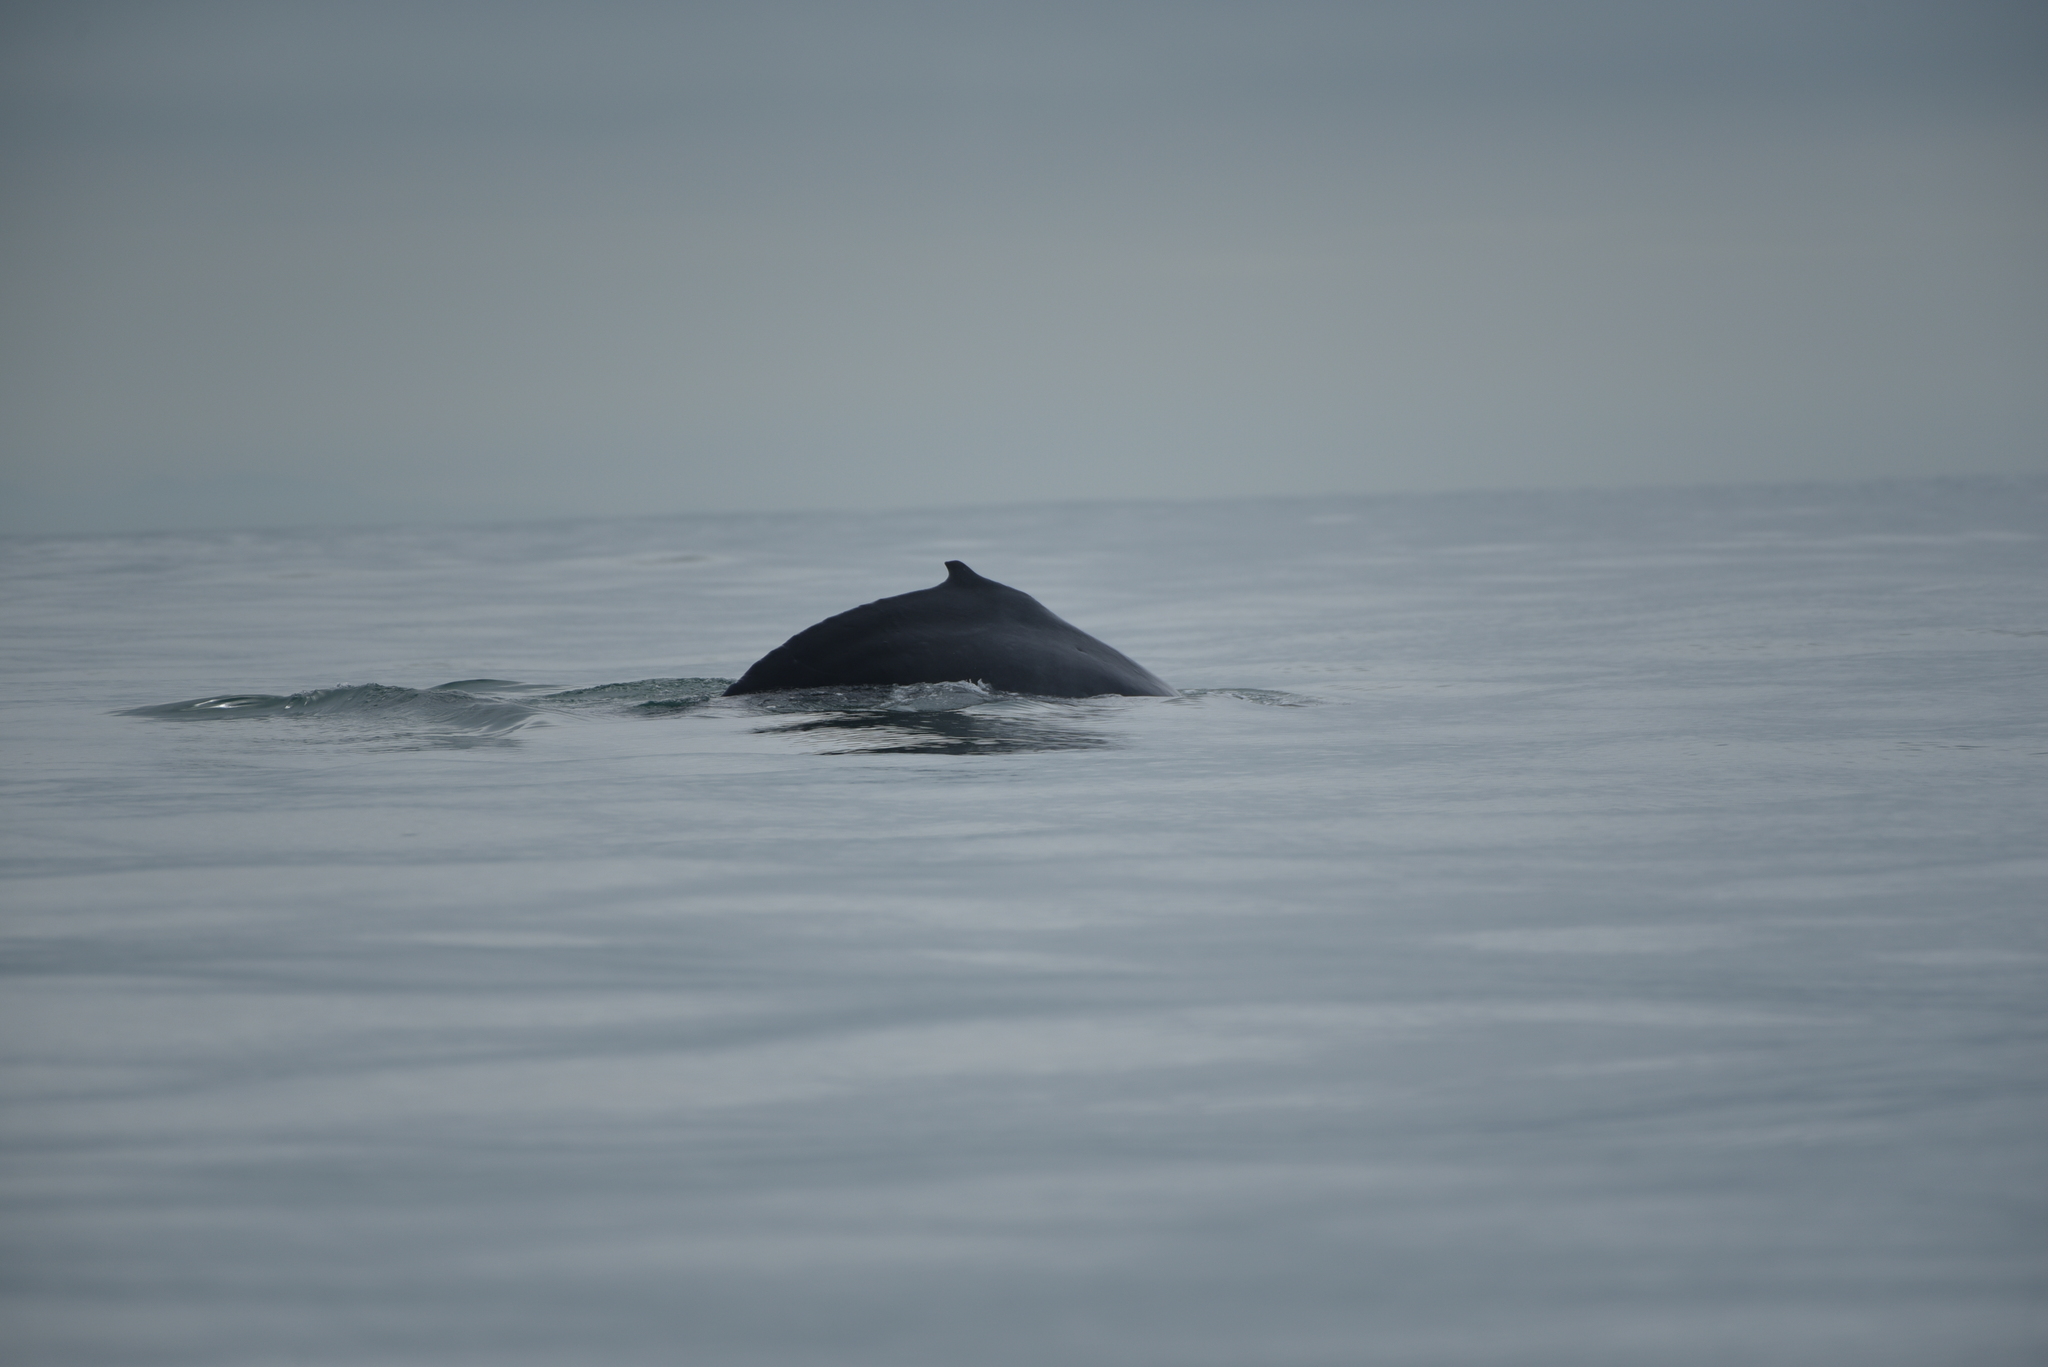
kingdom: Animalia
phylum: Chordata
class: Mammalia
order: Cetacea
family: Balaenopteridae
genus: Megaptera
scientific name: Megaptera novaeangliae
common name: Humpback whale
